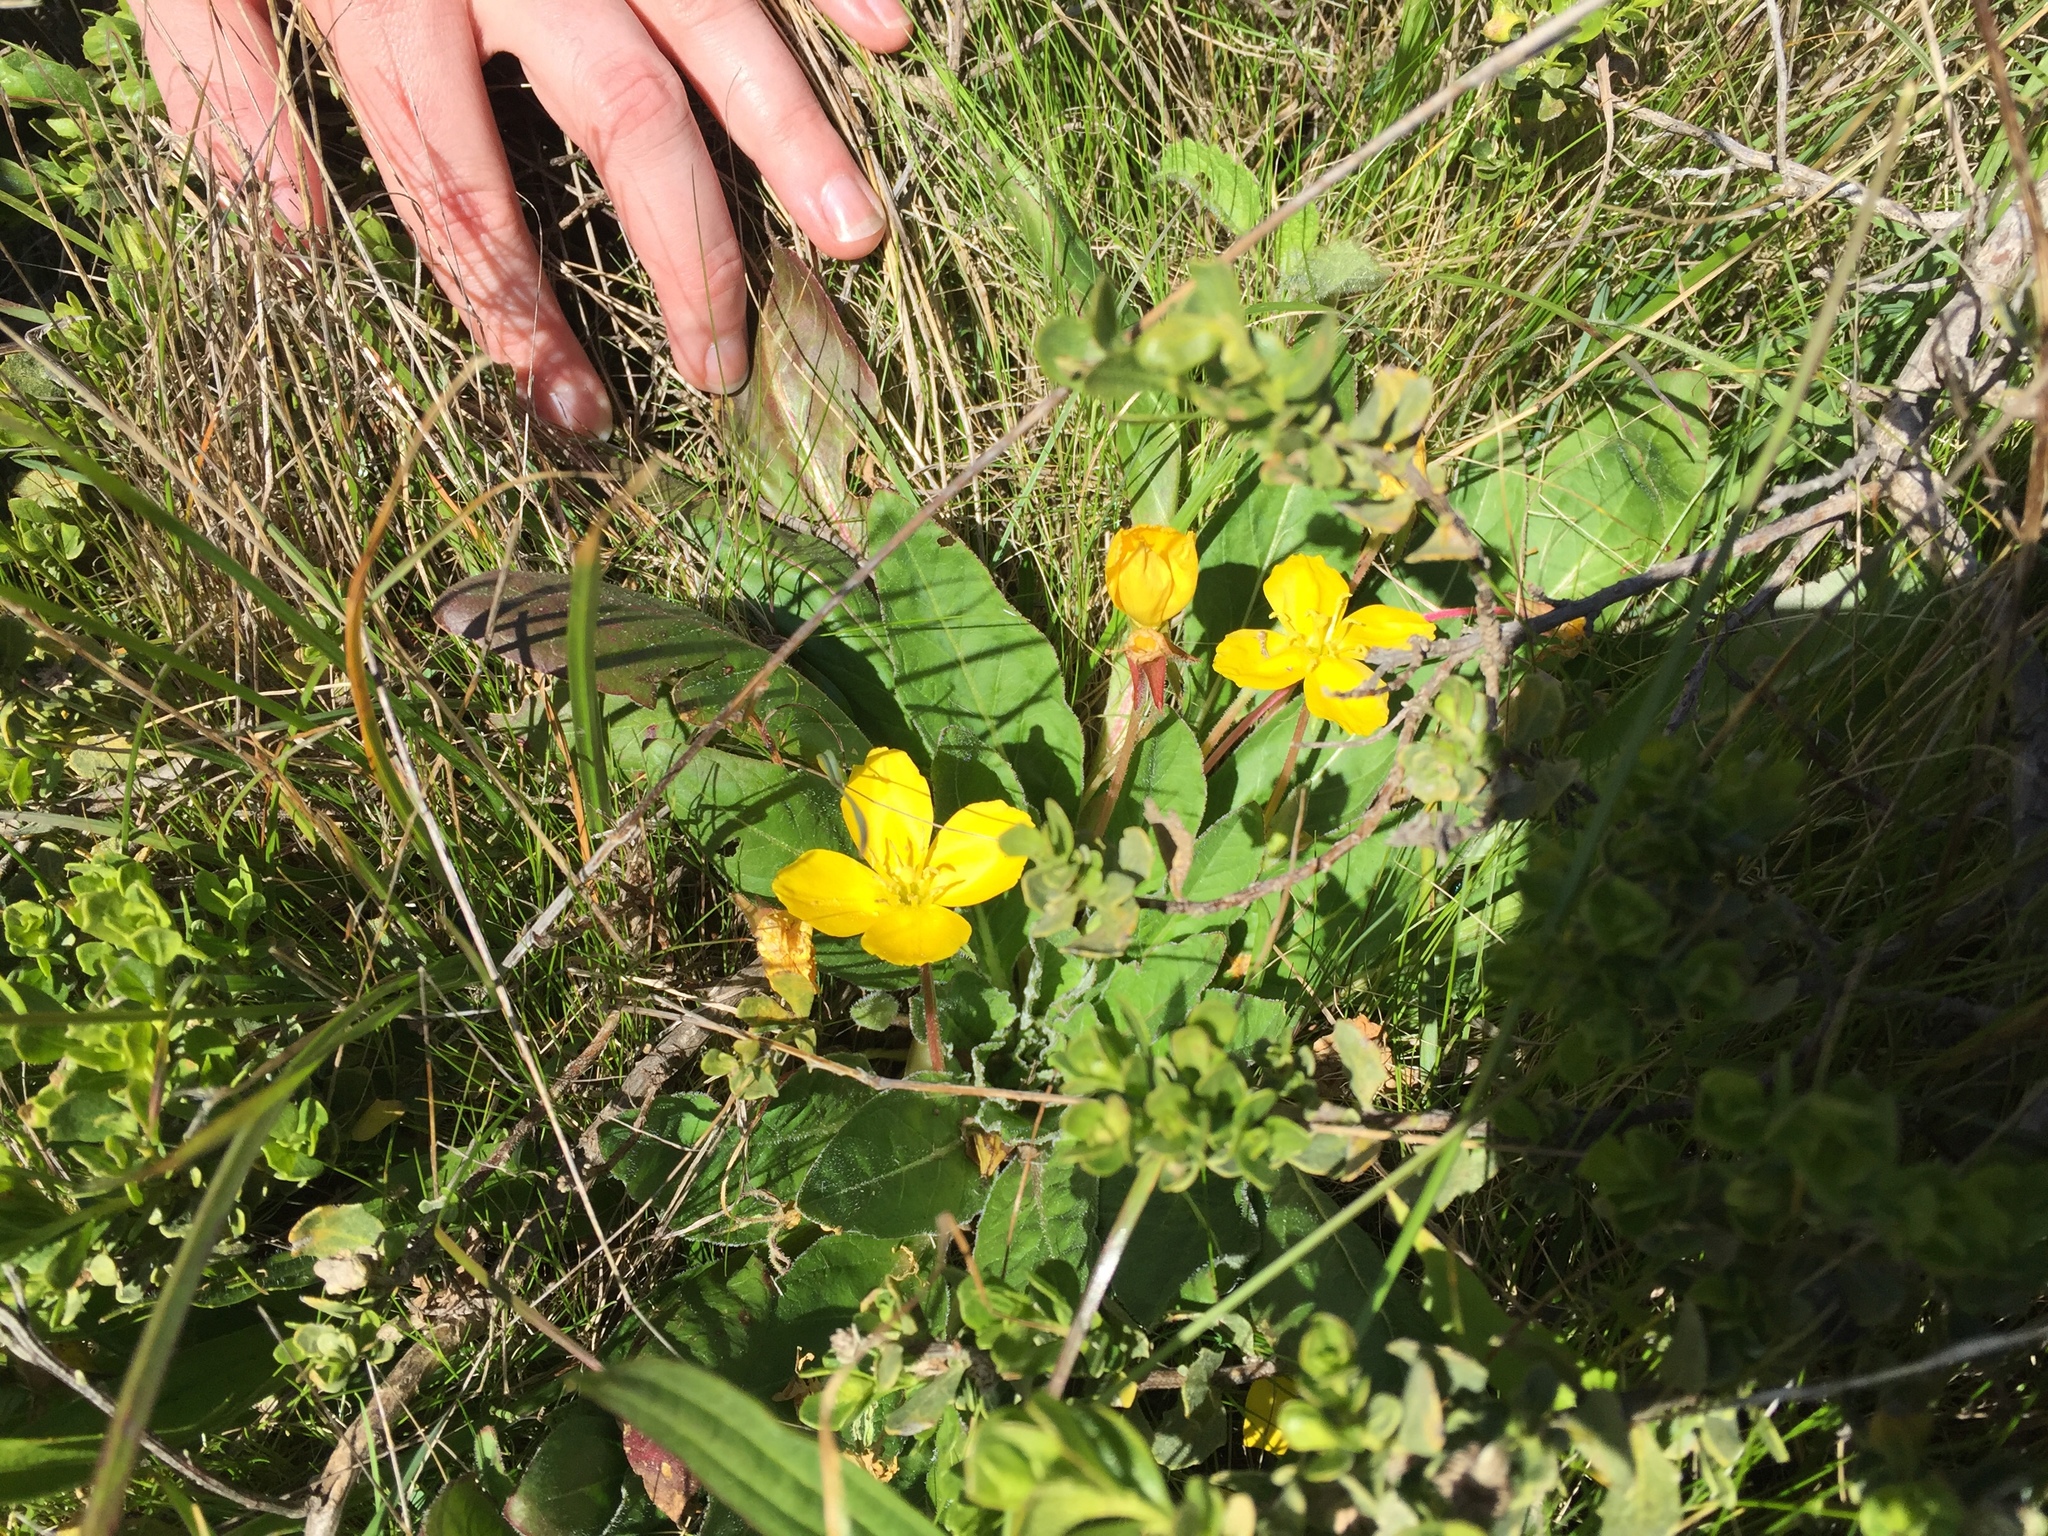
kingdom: Plantae
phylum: Tracheophyta
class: Magnoliopsida
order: Myrtales
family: Onagraceae
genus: Taraxia
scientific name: Taraxia ovata
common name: Goldeneggs
